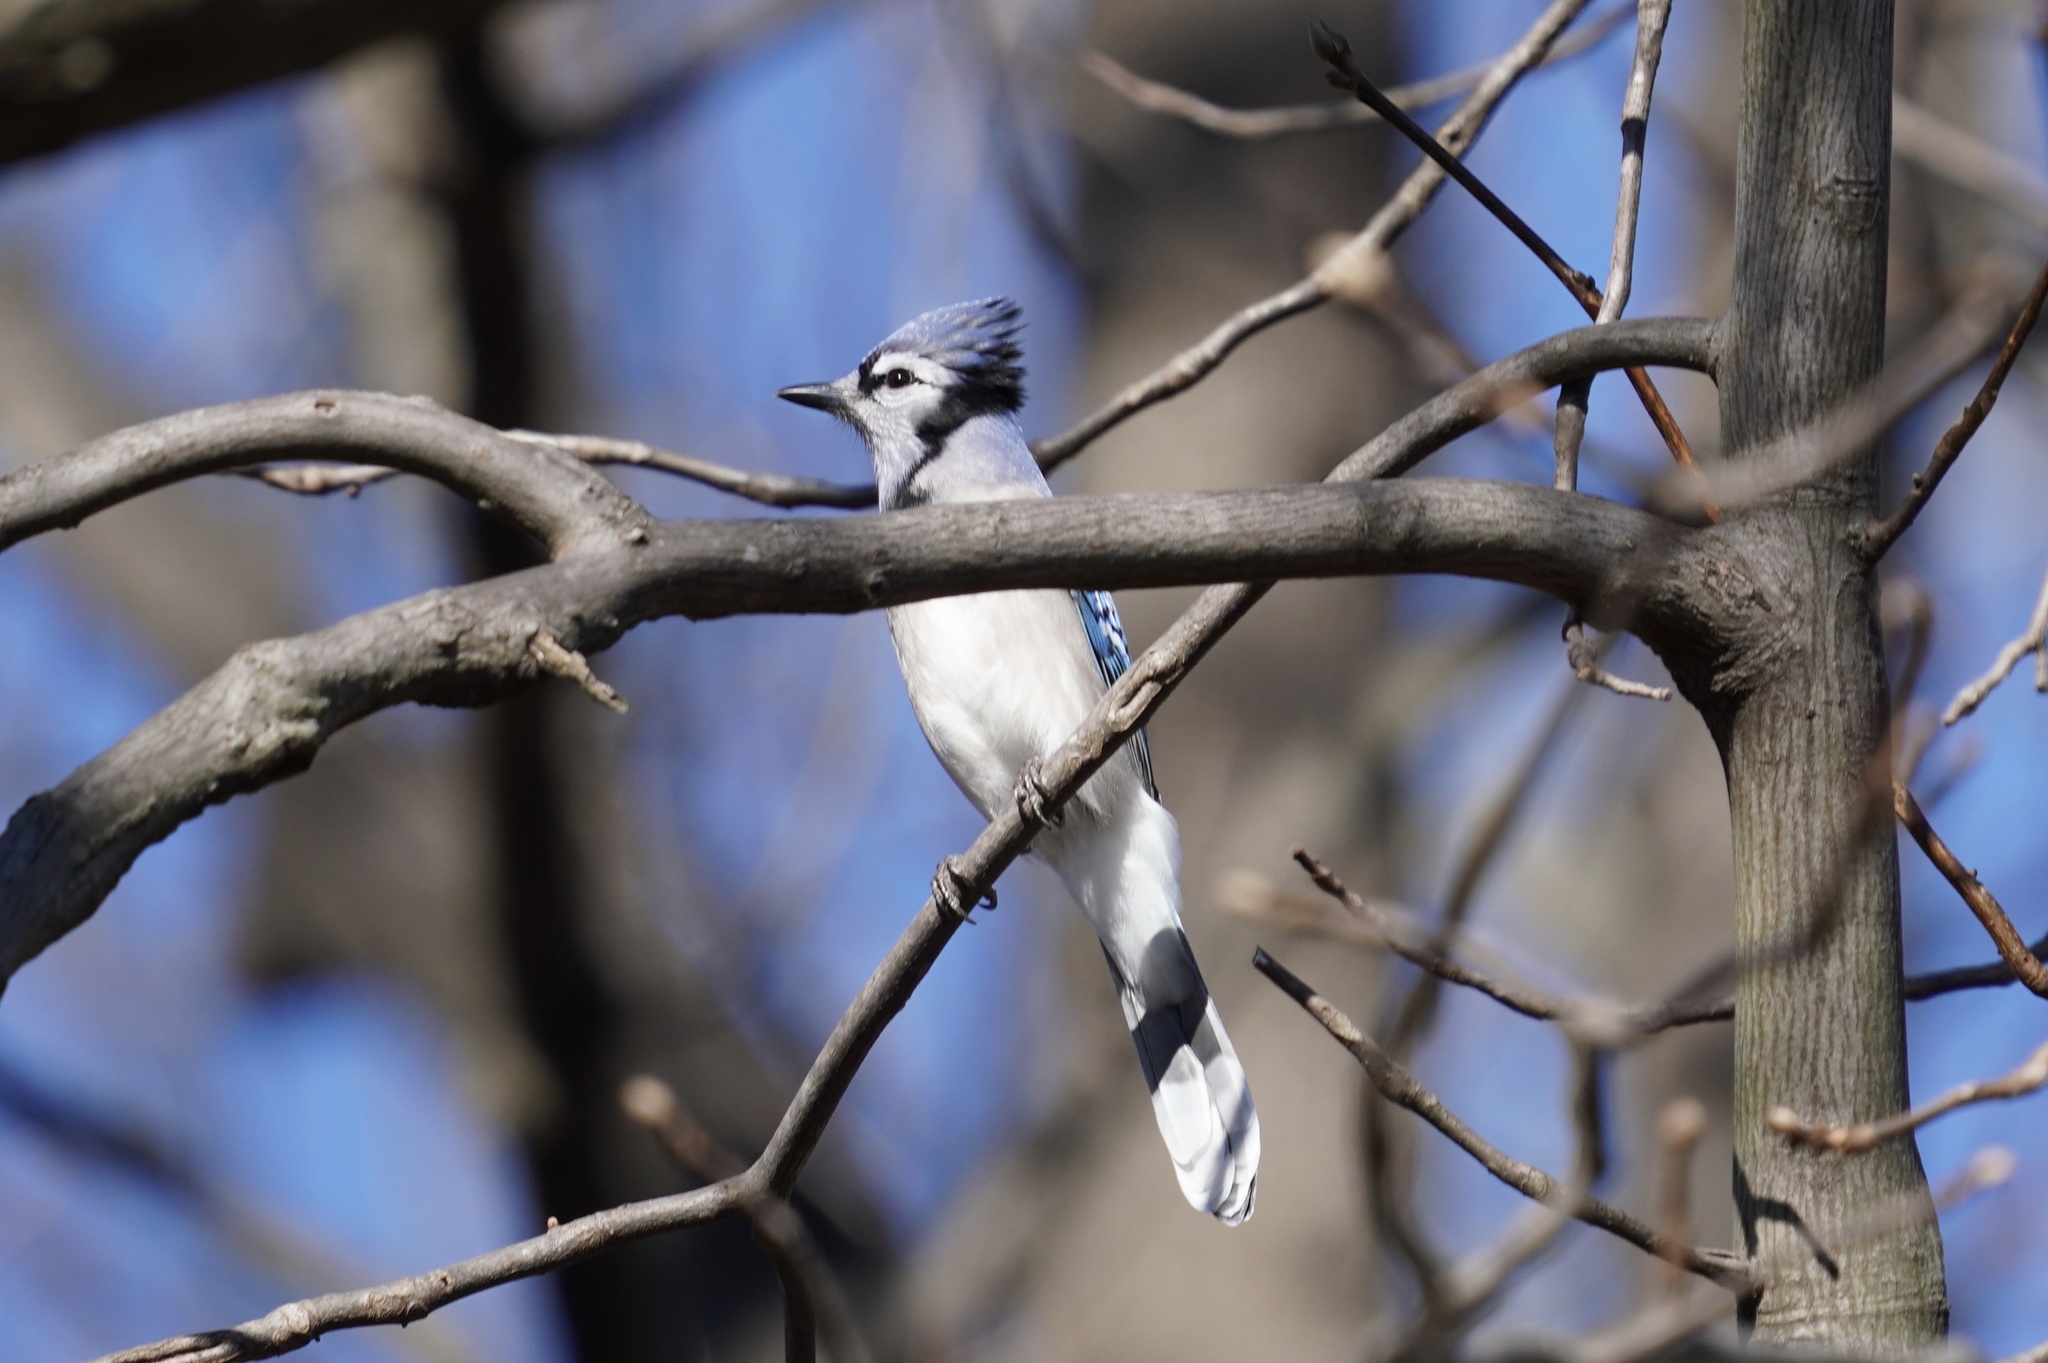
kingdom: Animalia
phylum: Chordata
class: Aves
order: Passeriformes
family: Corvidae
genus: Cyanocitta
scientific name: Cyanocitta cristata
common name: Blue jay
